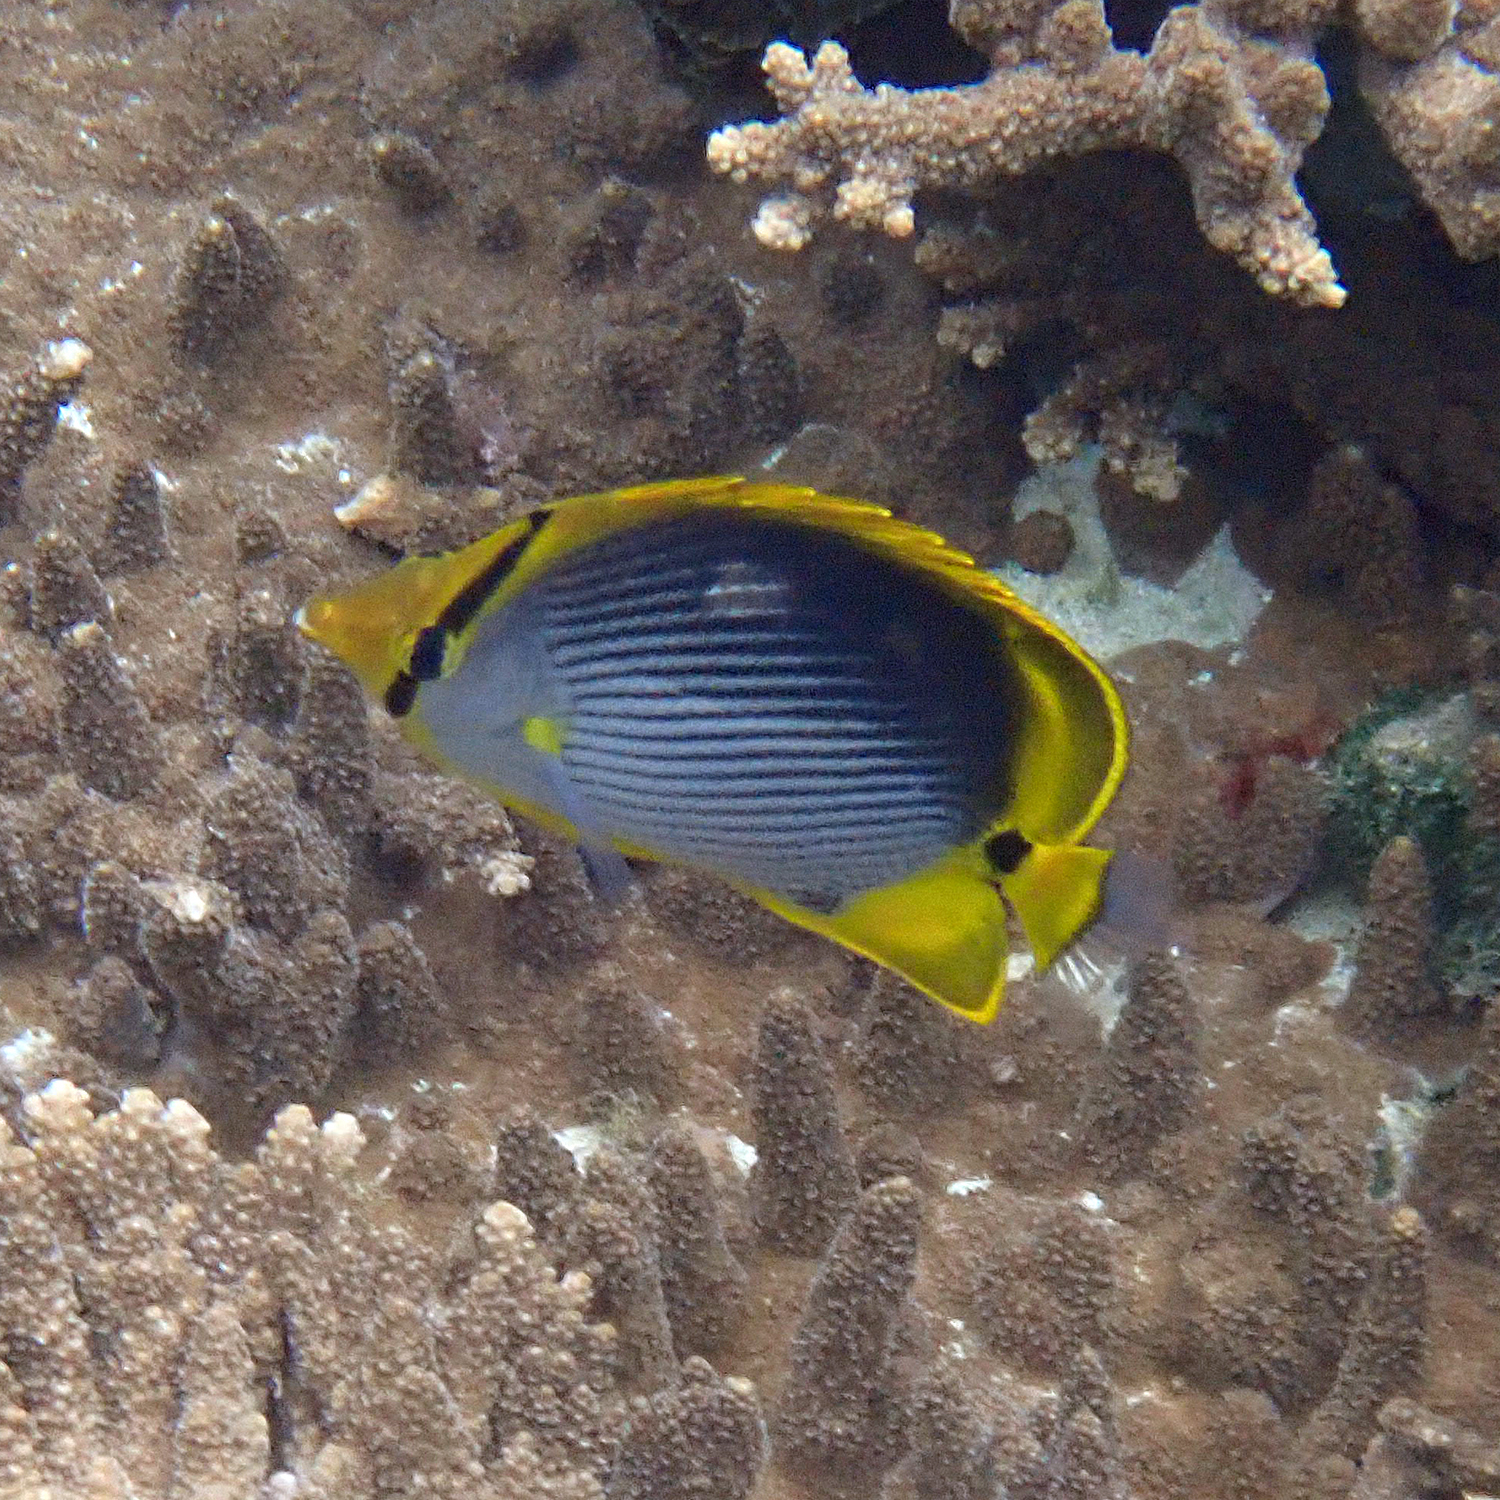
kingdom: Animalia
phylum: Chordata
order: Perciformes
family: Chaetodontidae
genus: Chaetodon
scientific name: Chaetodon melannotus
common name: Blackback butterflyfish
